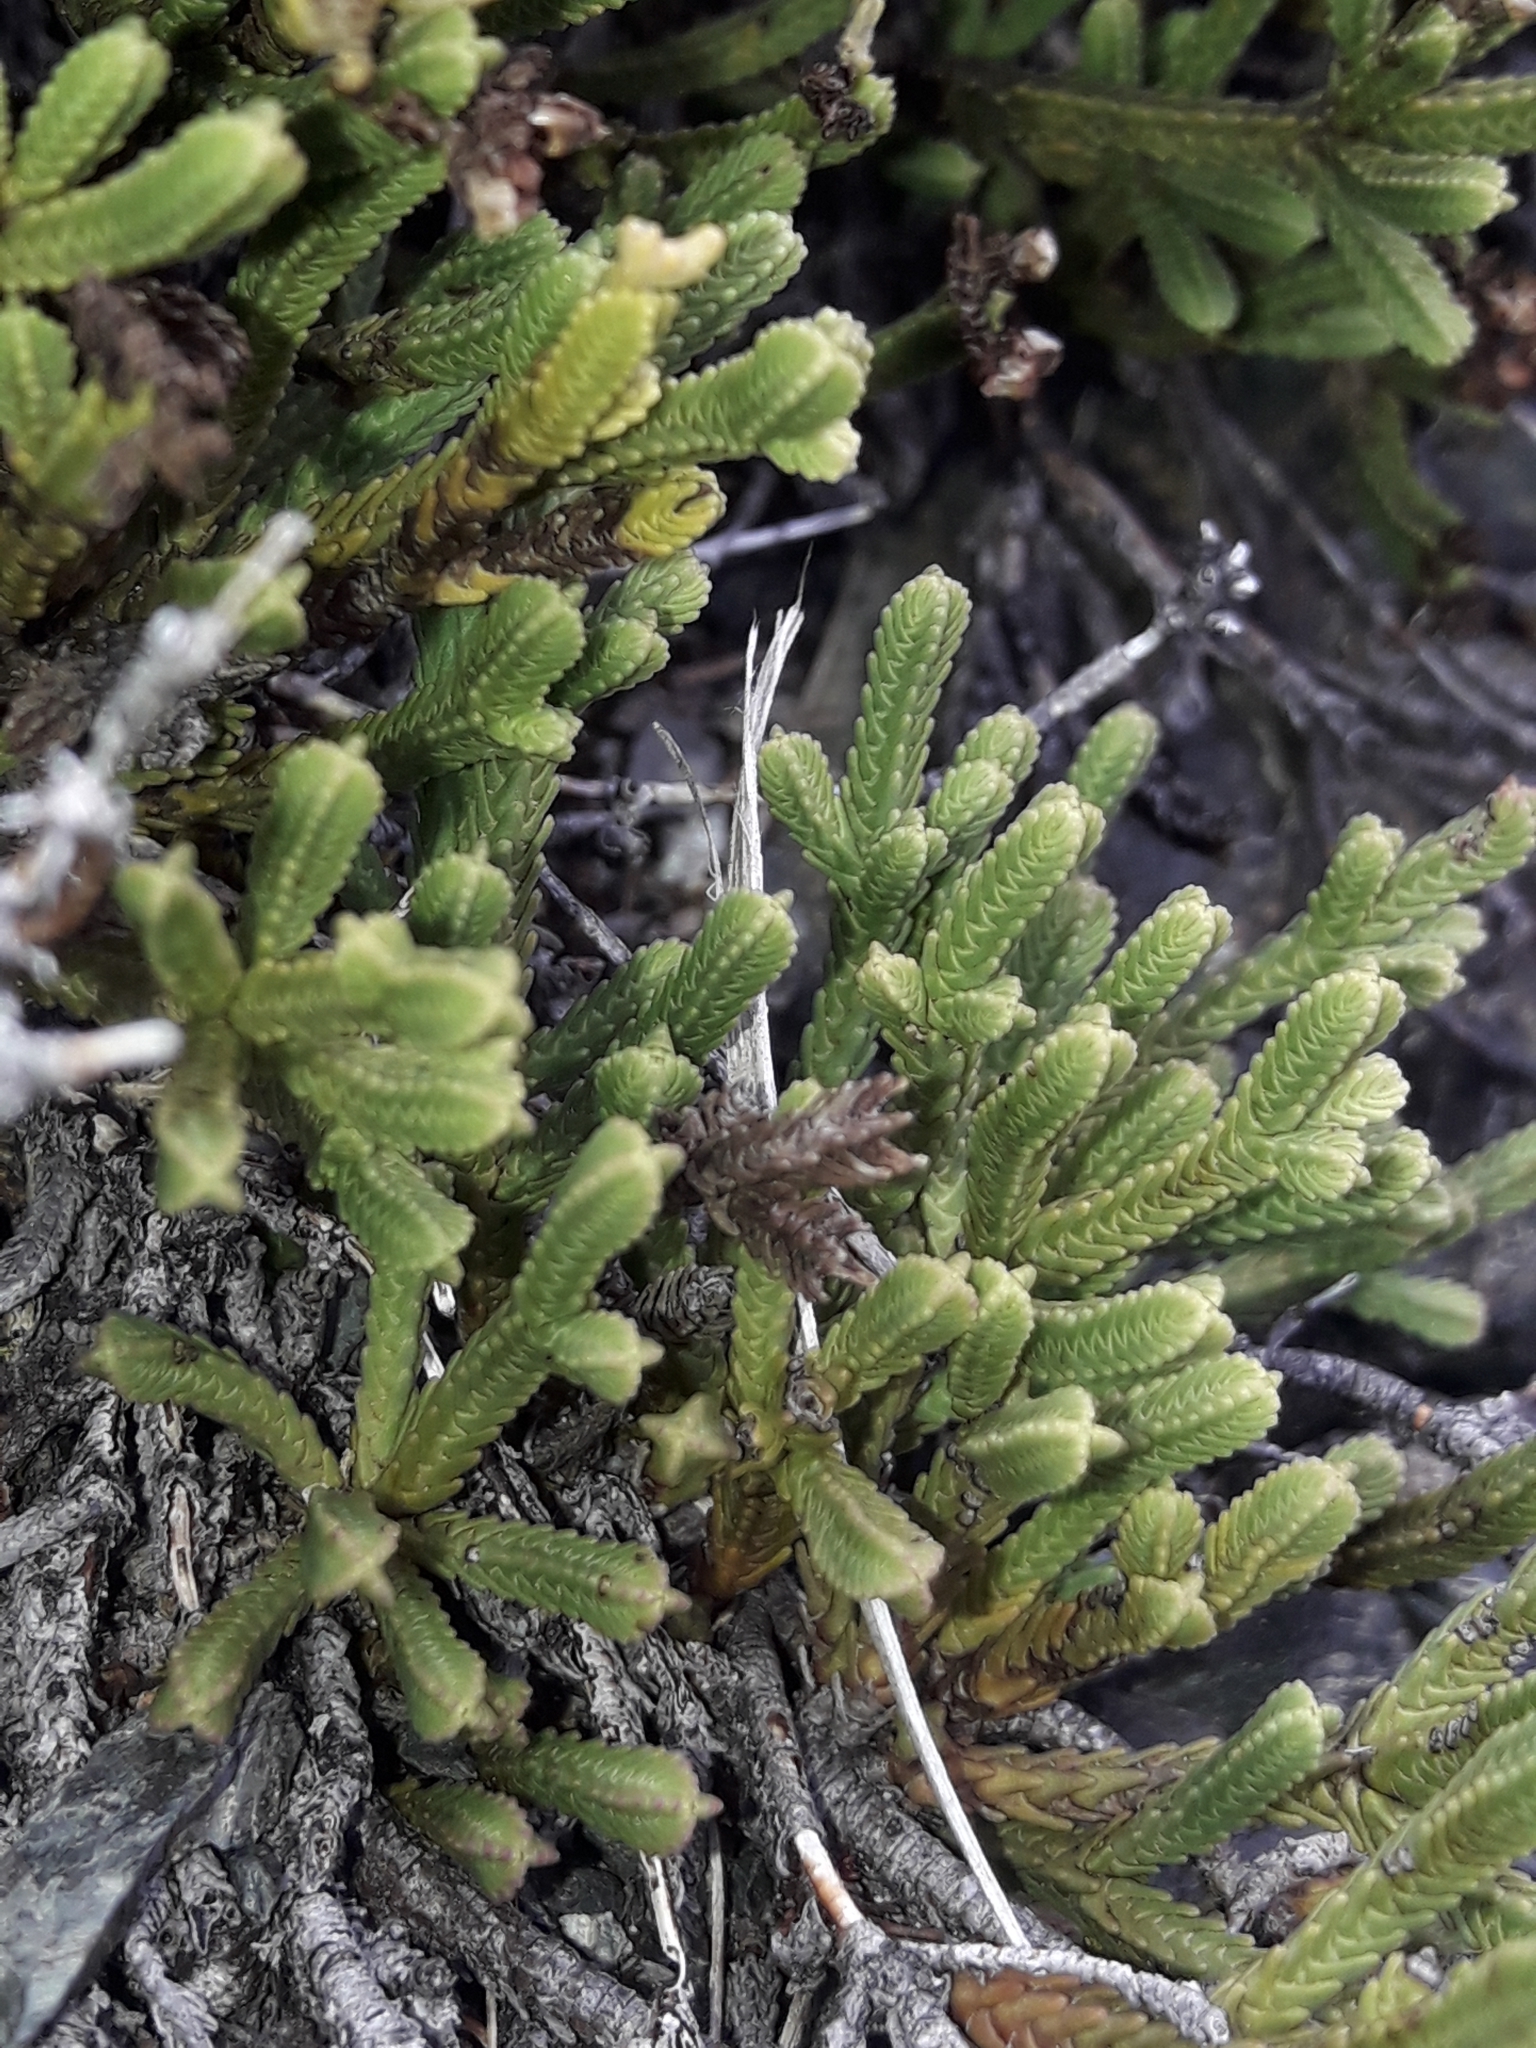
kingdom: Plantae
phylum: Tracheophyta
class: Magnoliopsida
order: Lamiales
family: Plantaginaceae
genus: Veronica
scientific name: Veronica tetrasticha
